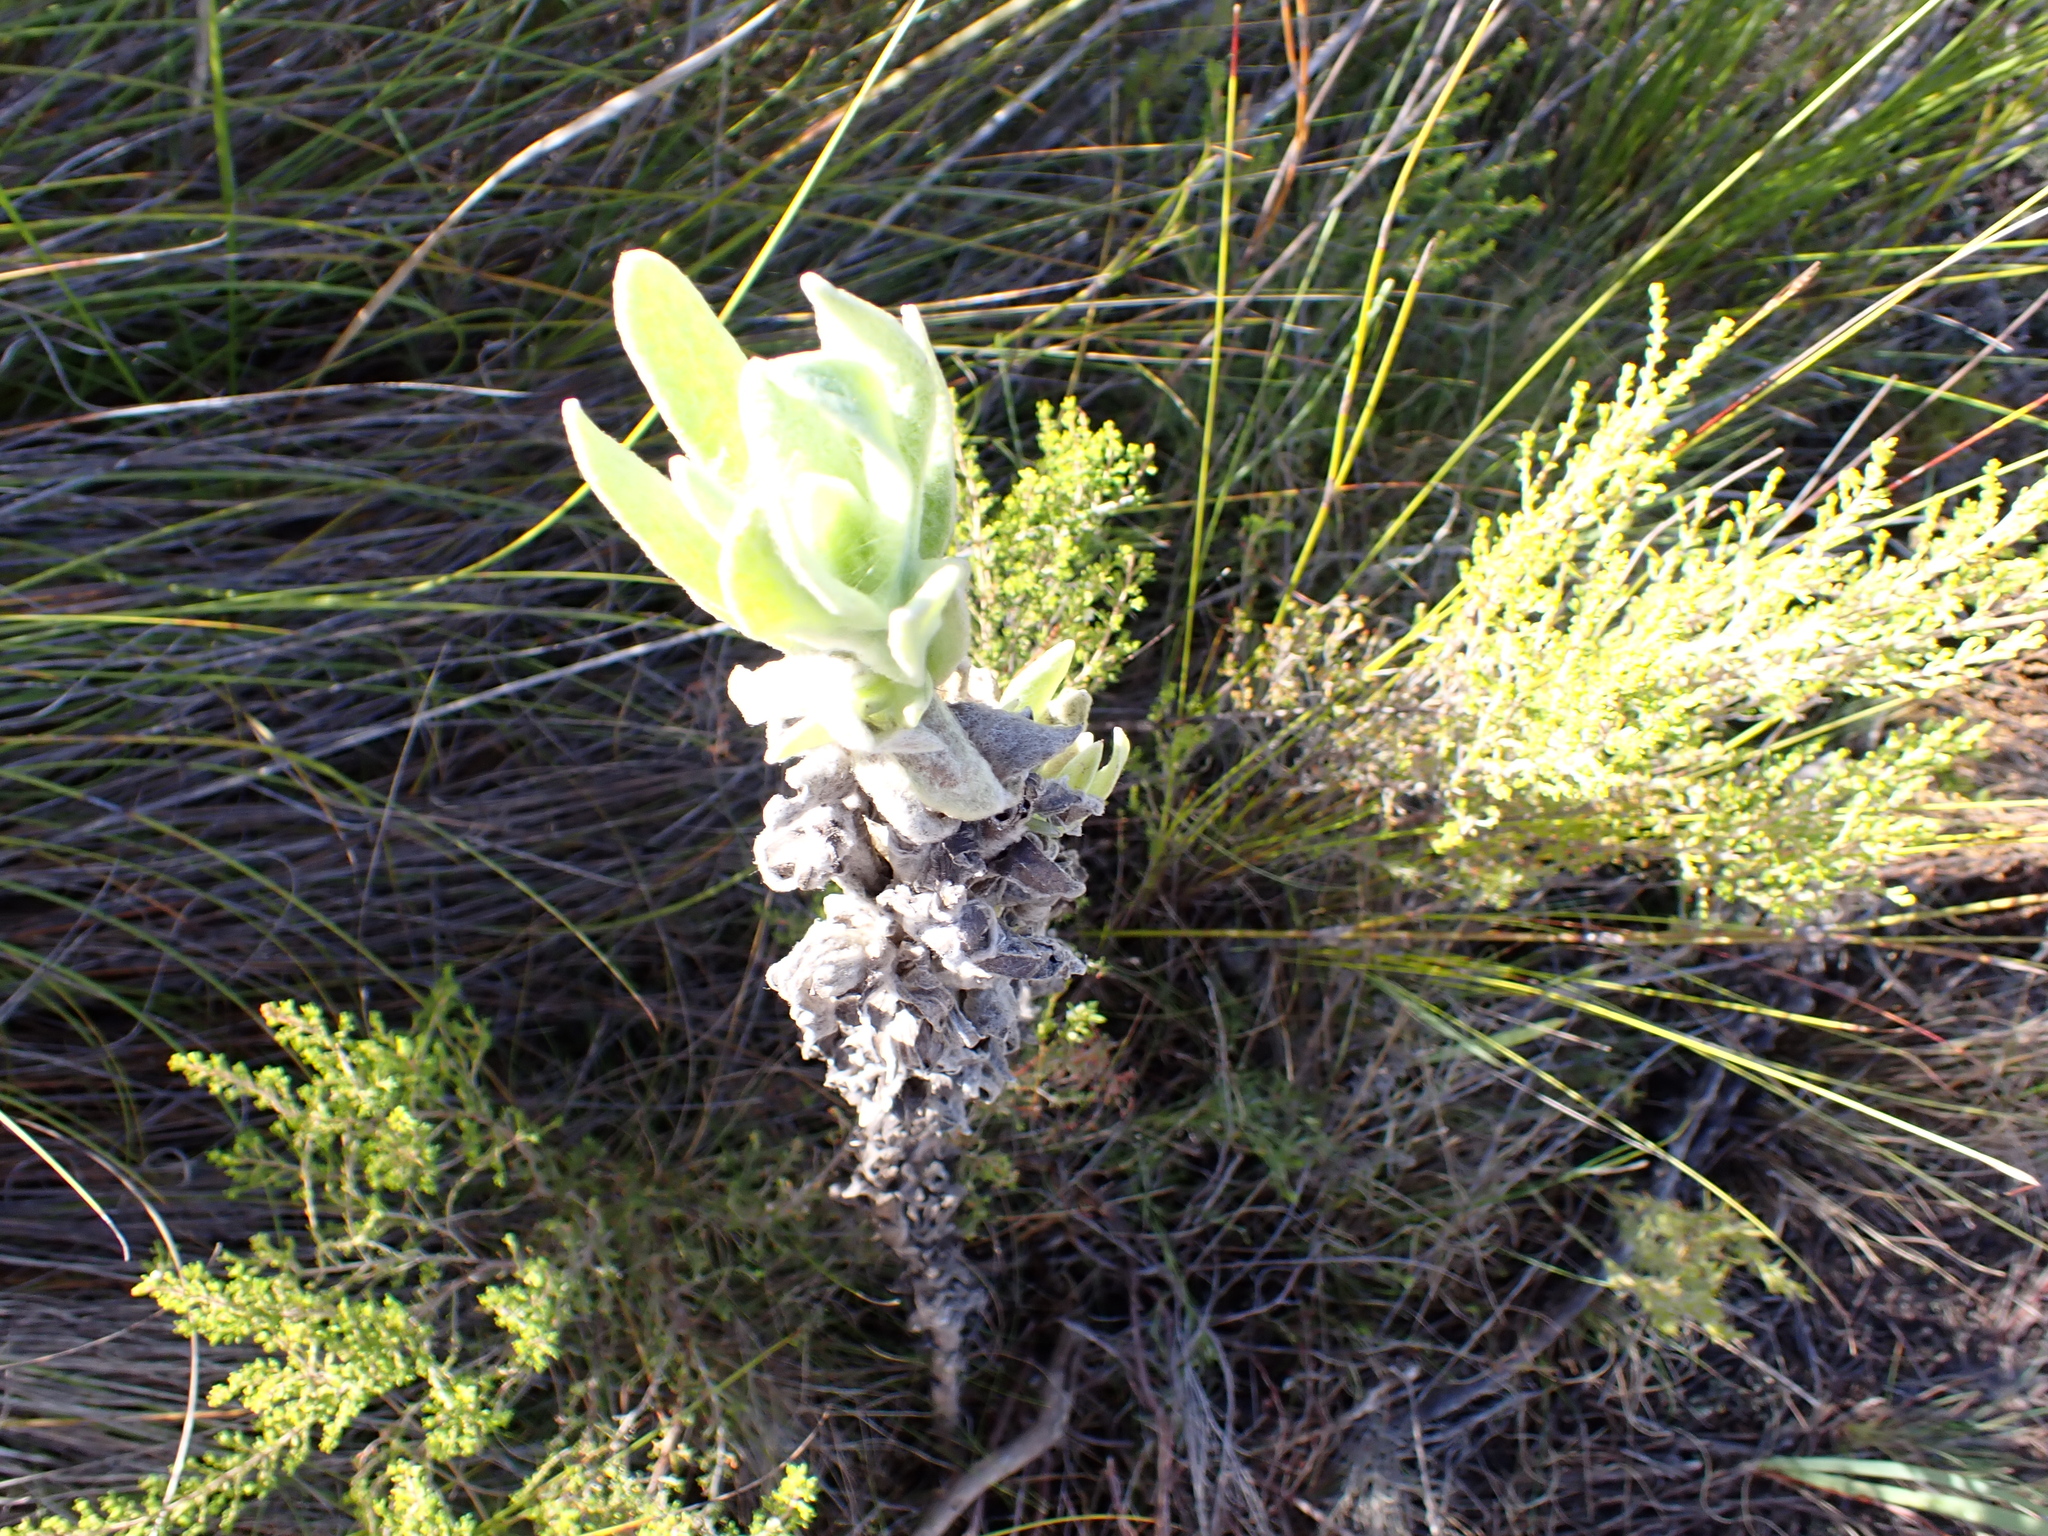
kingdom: Plantae
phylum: Tracheophyta
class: Magnoliopsida
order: Asterales
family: Asteraceae
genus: Syncarpha
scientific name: Syncarpha vestita
